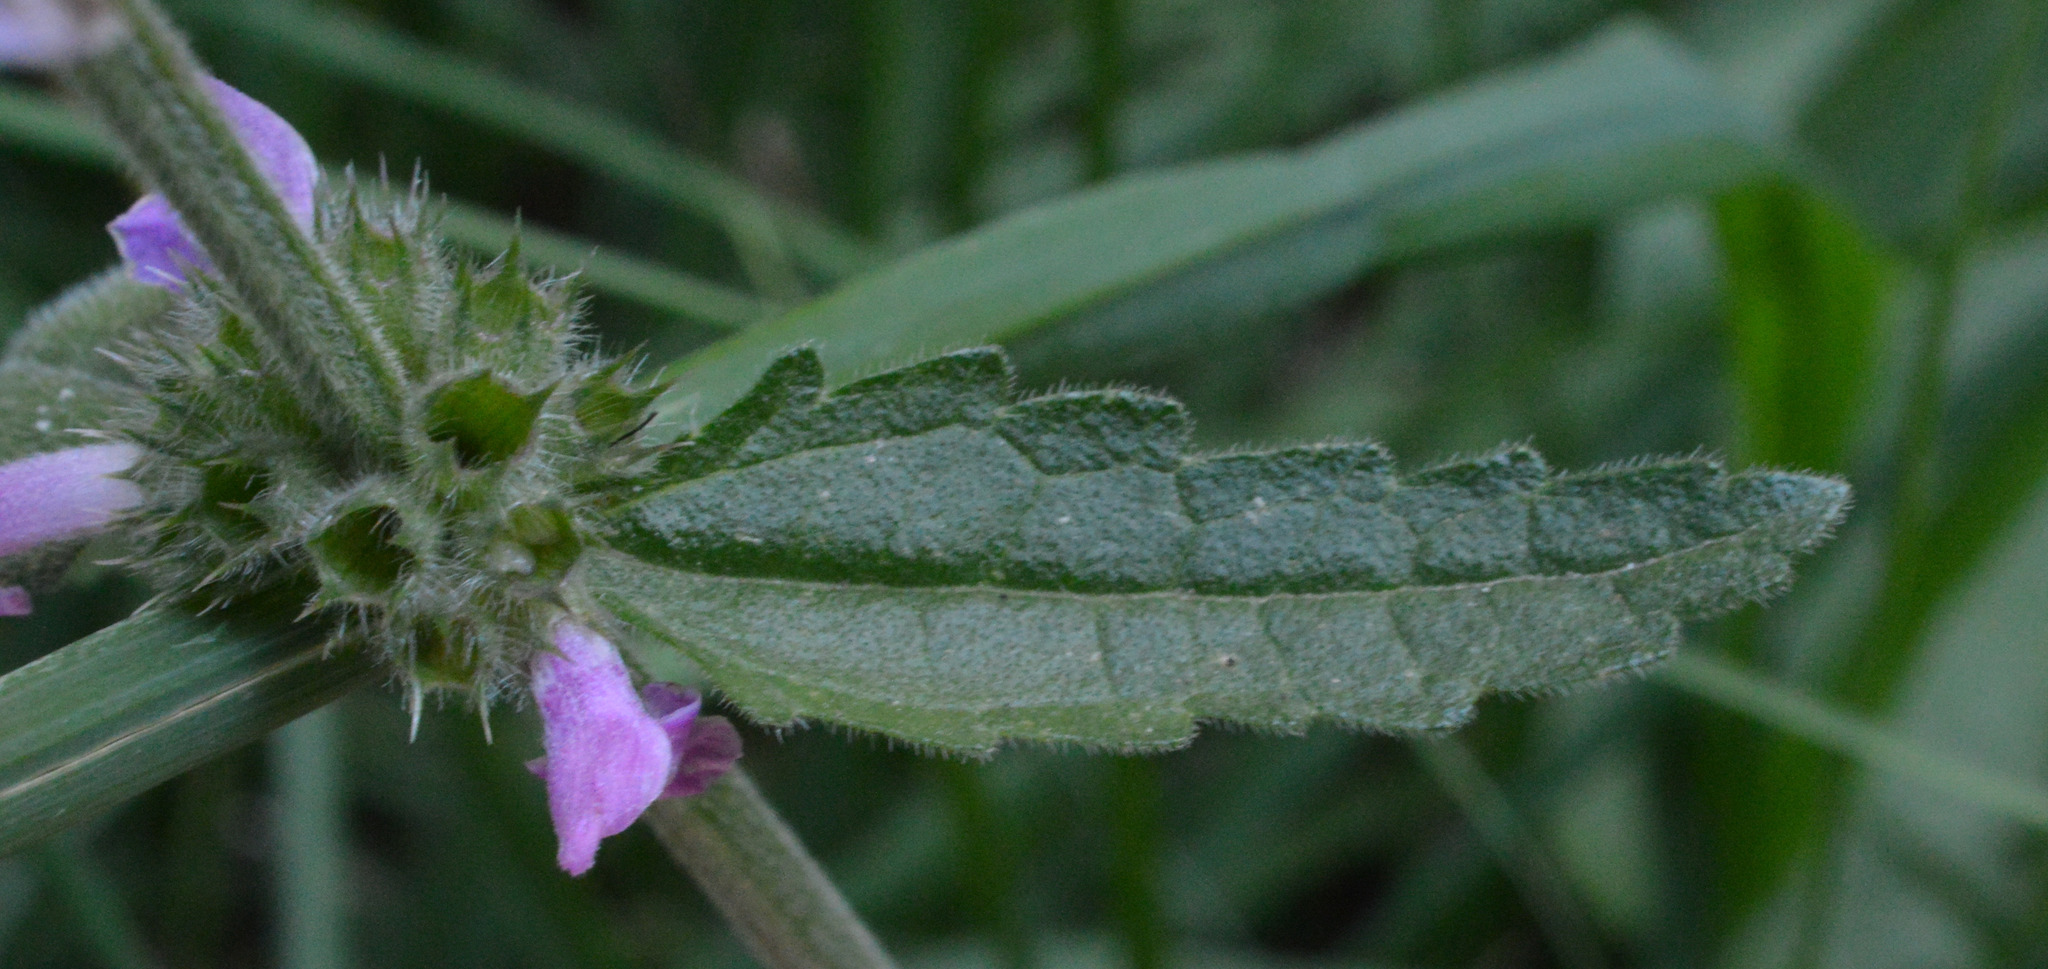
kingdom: Plantae
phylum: Tracheophyta
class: Magnoliopsida
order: Lamiales
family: Lamiaceae
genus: Betonica
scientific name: Betonica officinalis
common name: Bishop's-wort
